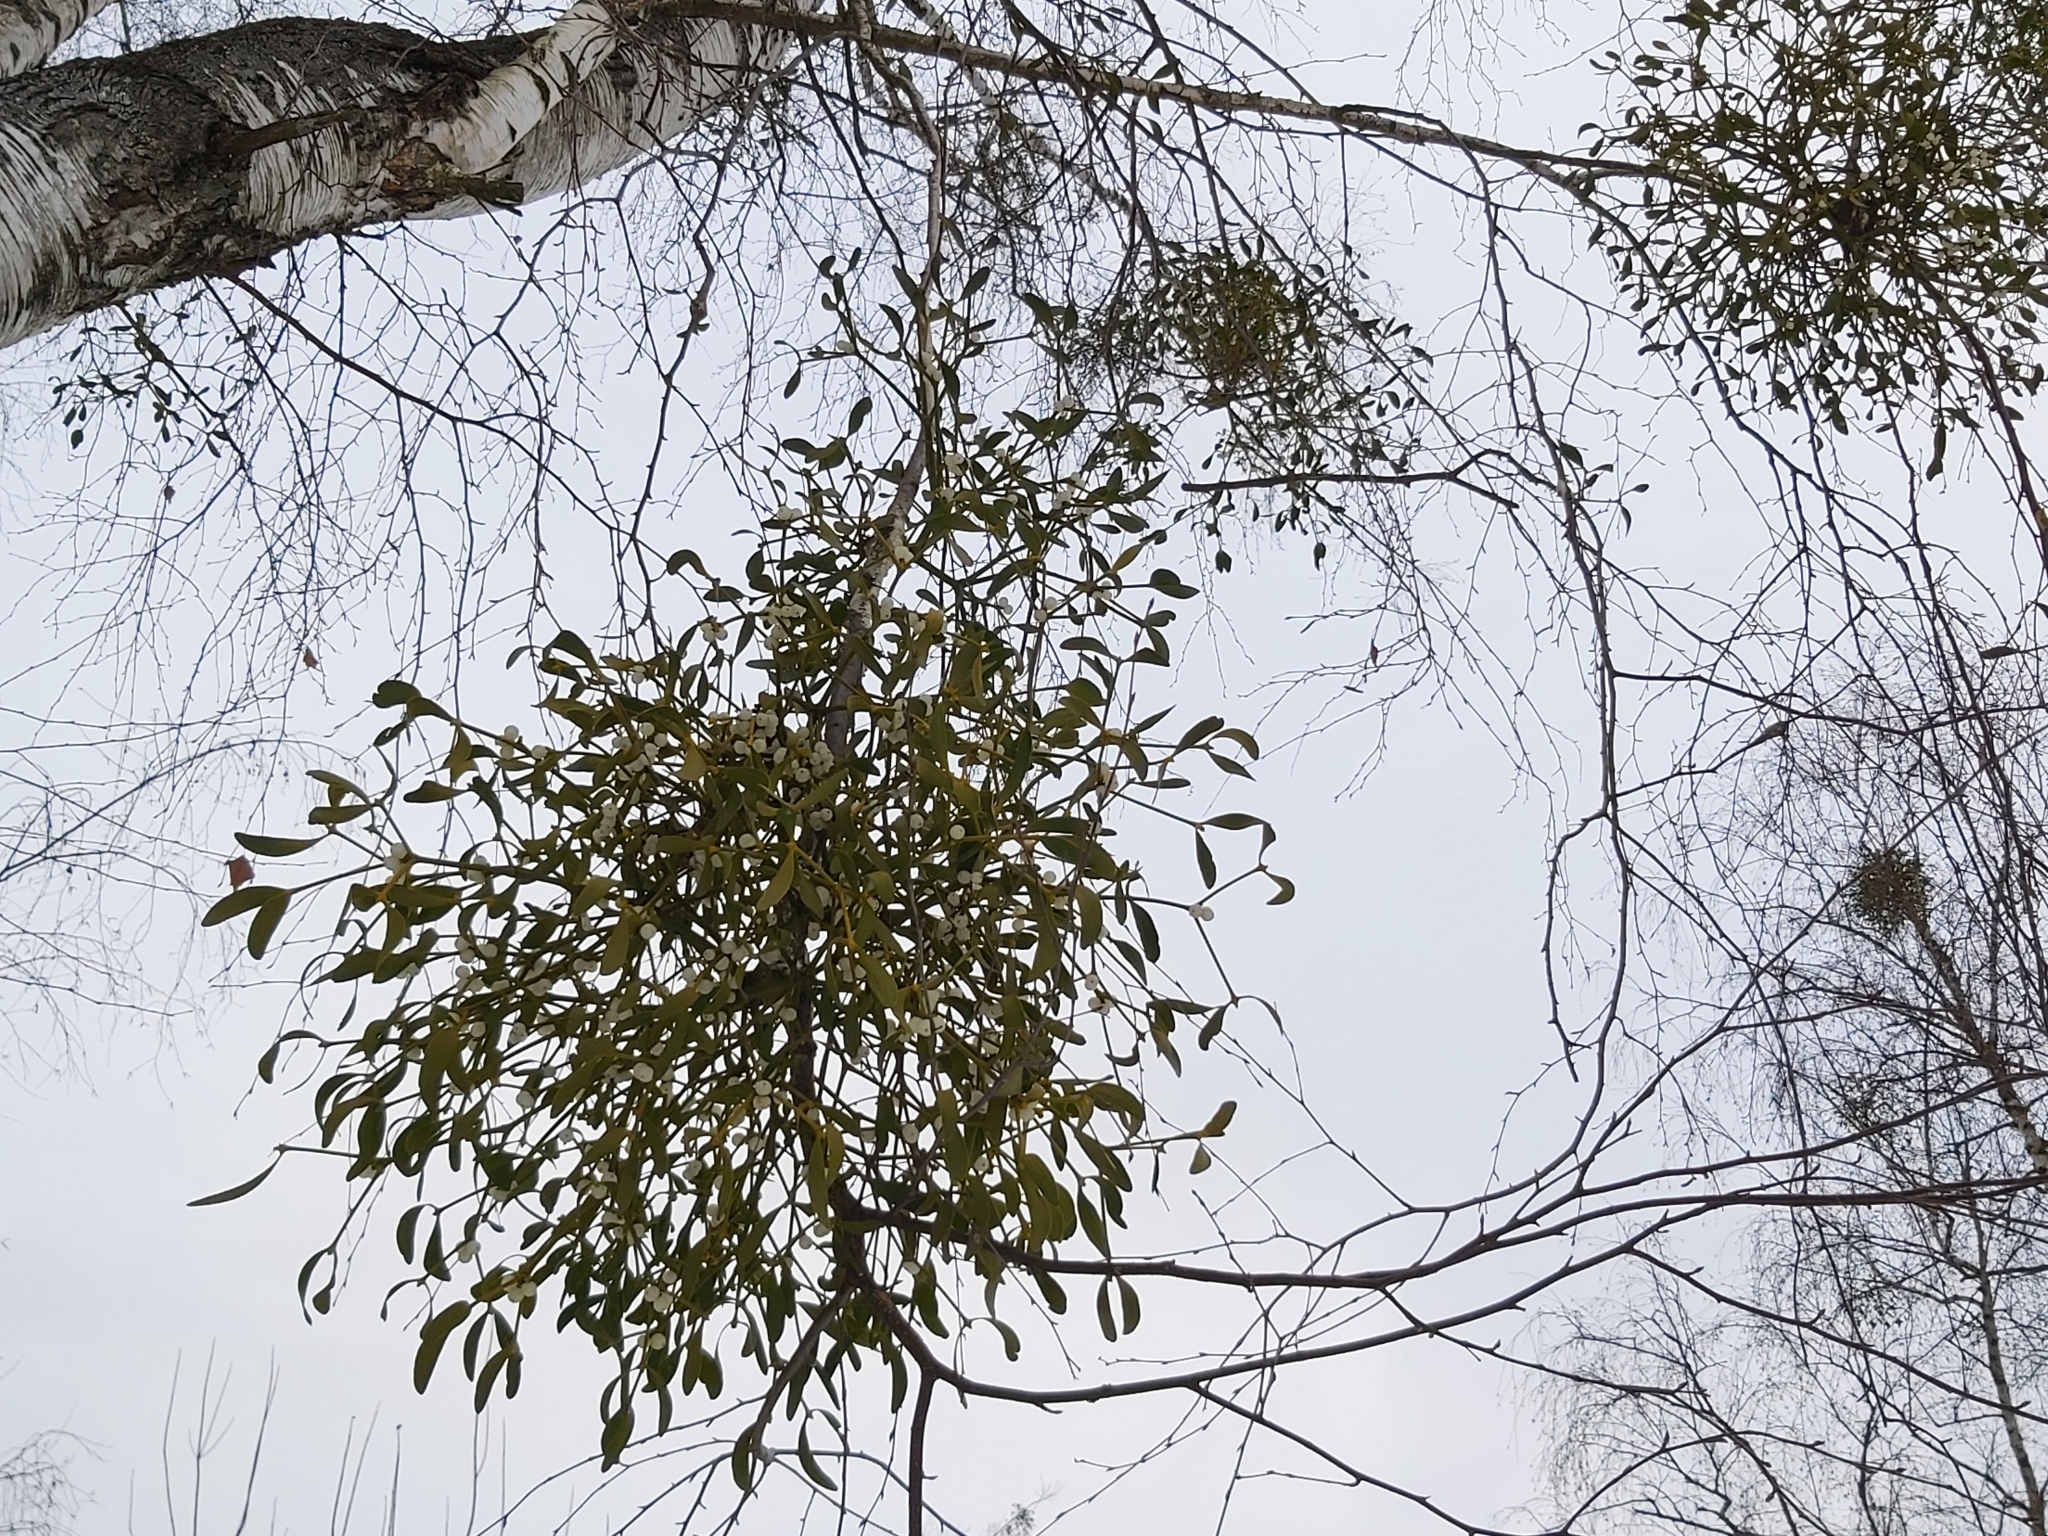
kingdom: Plantae
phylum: Tracheophyta
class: Magnoliopsida
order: Santalales
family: Viscaceae
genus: Viscum
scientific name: Viscum album
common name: Mistletoe
